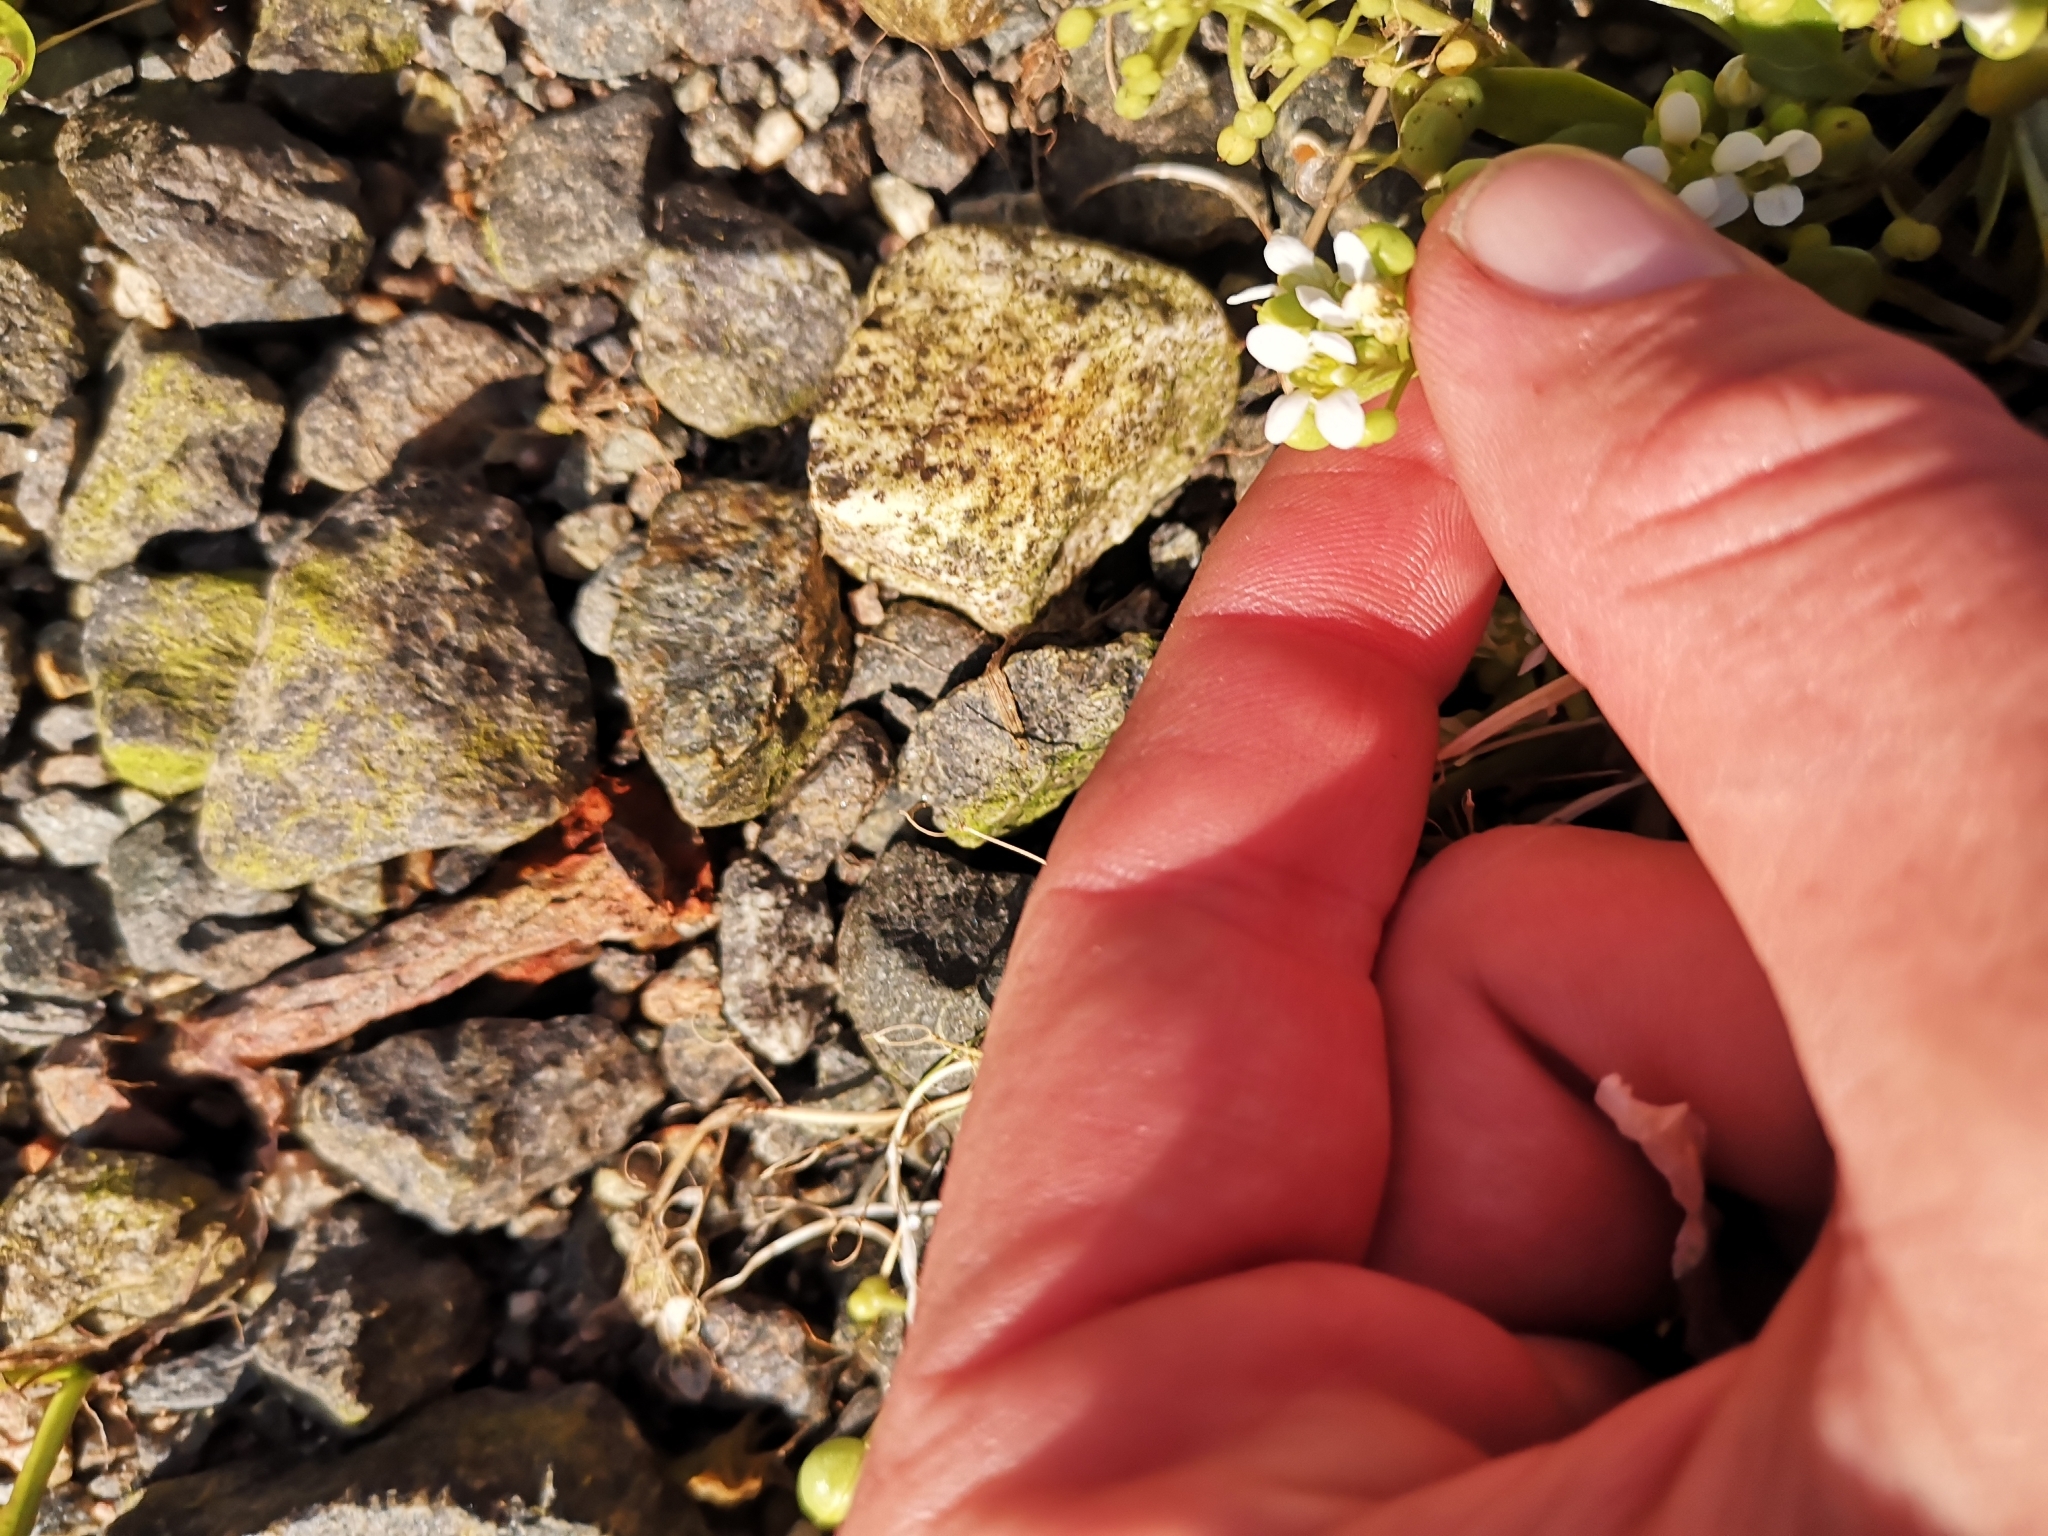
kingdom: Plantae
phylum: Tracheophyta
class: Magnoliopsida
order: Brassicales
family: Brassicaceae
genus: Cochlearia
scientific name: Cochlearia officinalis
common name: Scurvy-grass
